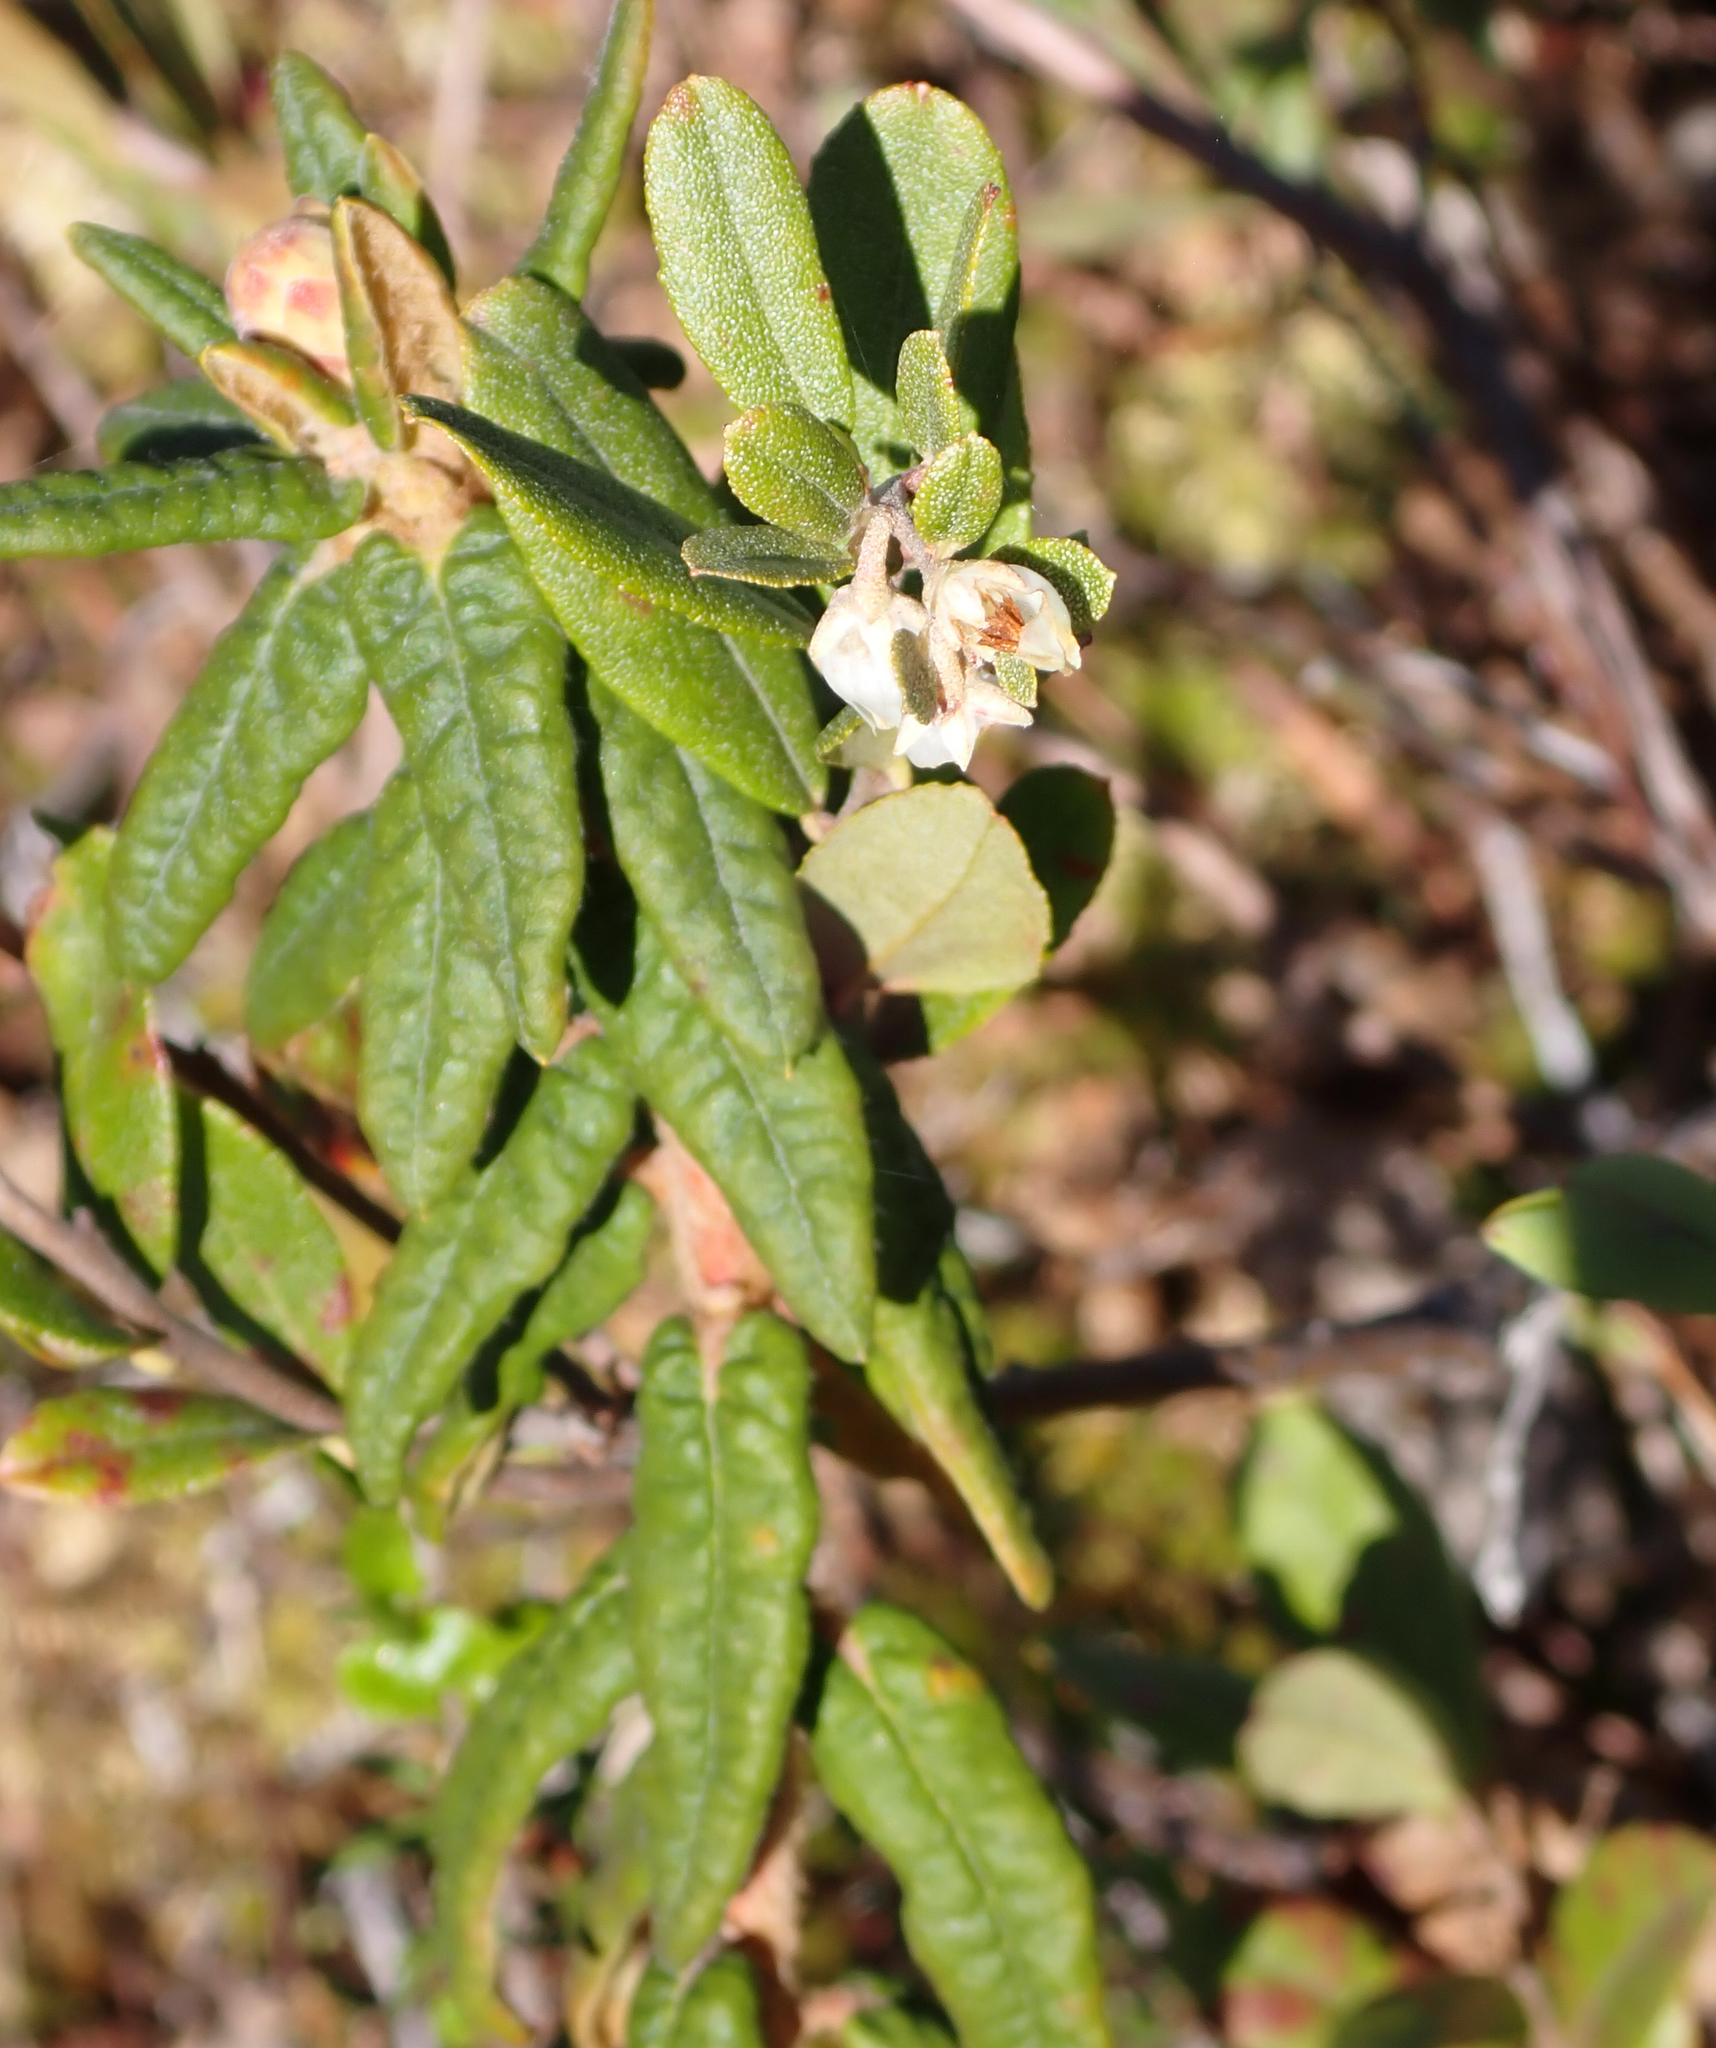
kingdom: Plantae
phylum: Tracheophyta
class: Magnoliopsida
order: Ericales
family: Ericaceae
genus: Rhododendron
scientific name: Rhododendron groenlandicum
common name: Bog labrador tea
